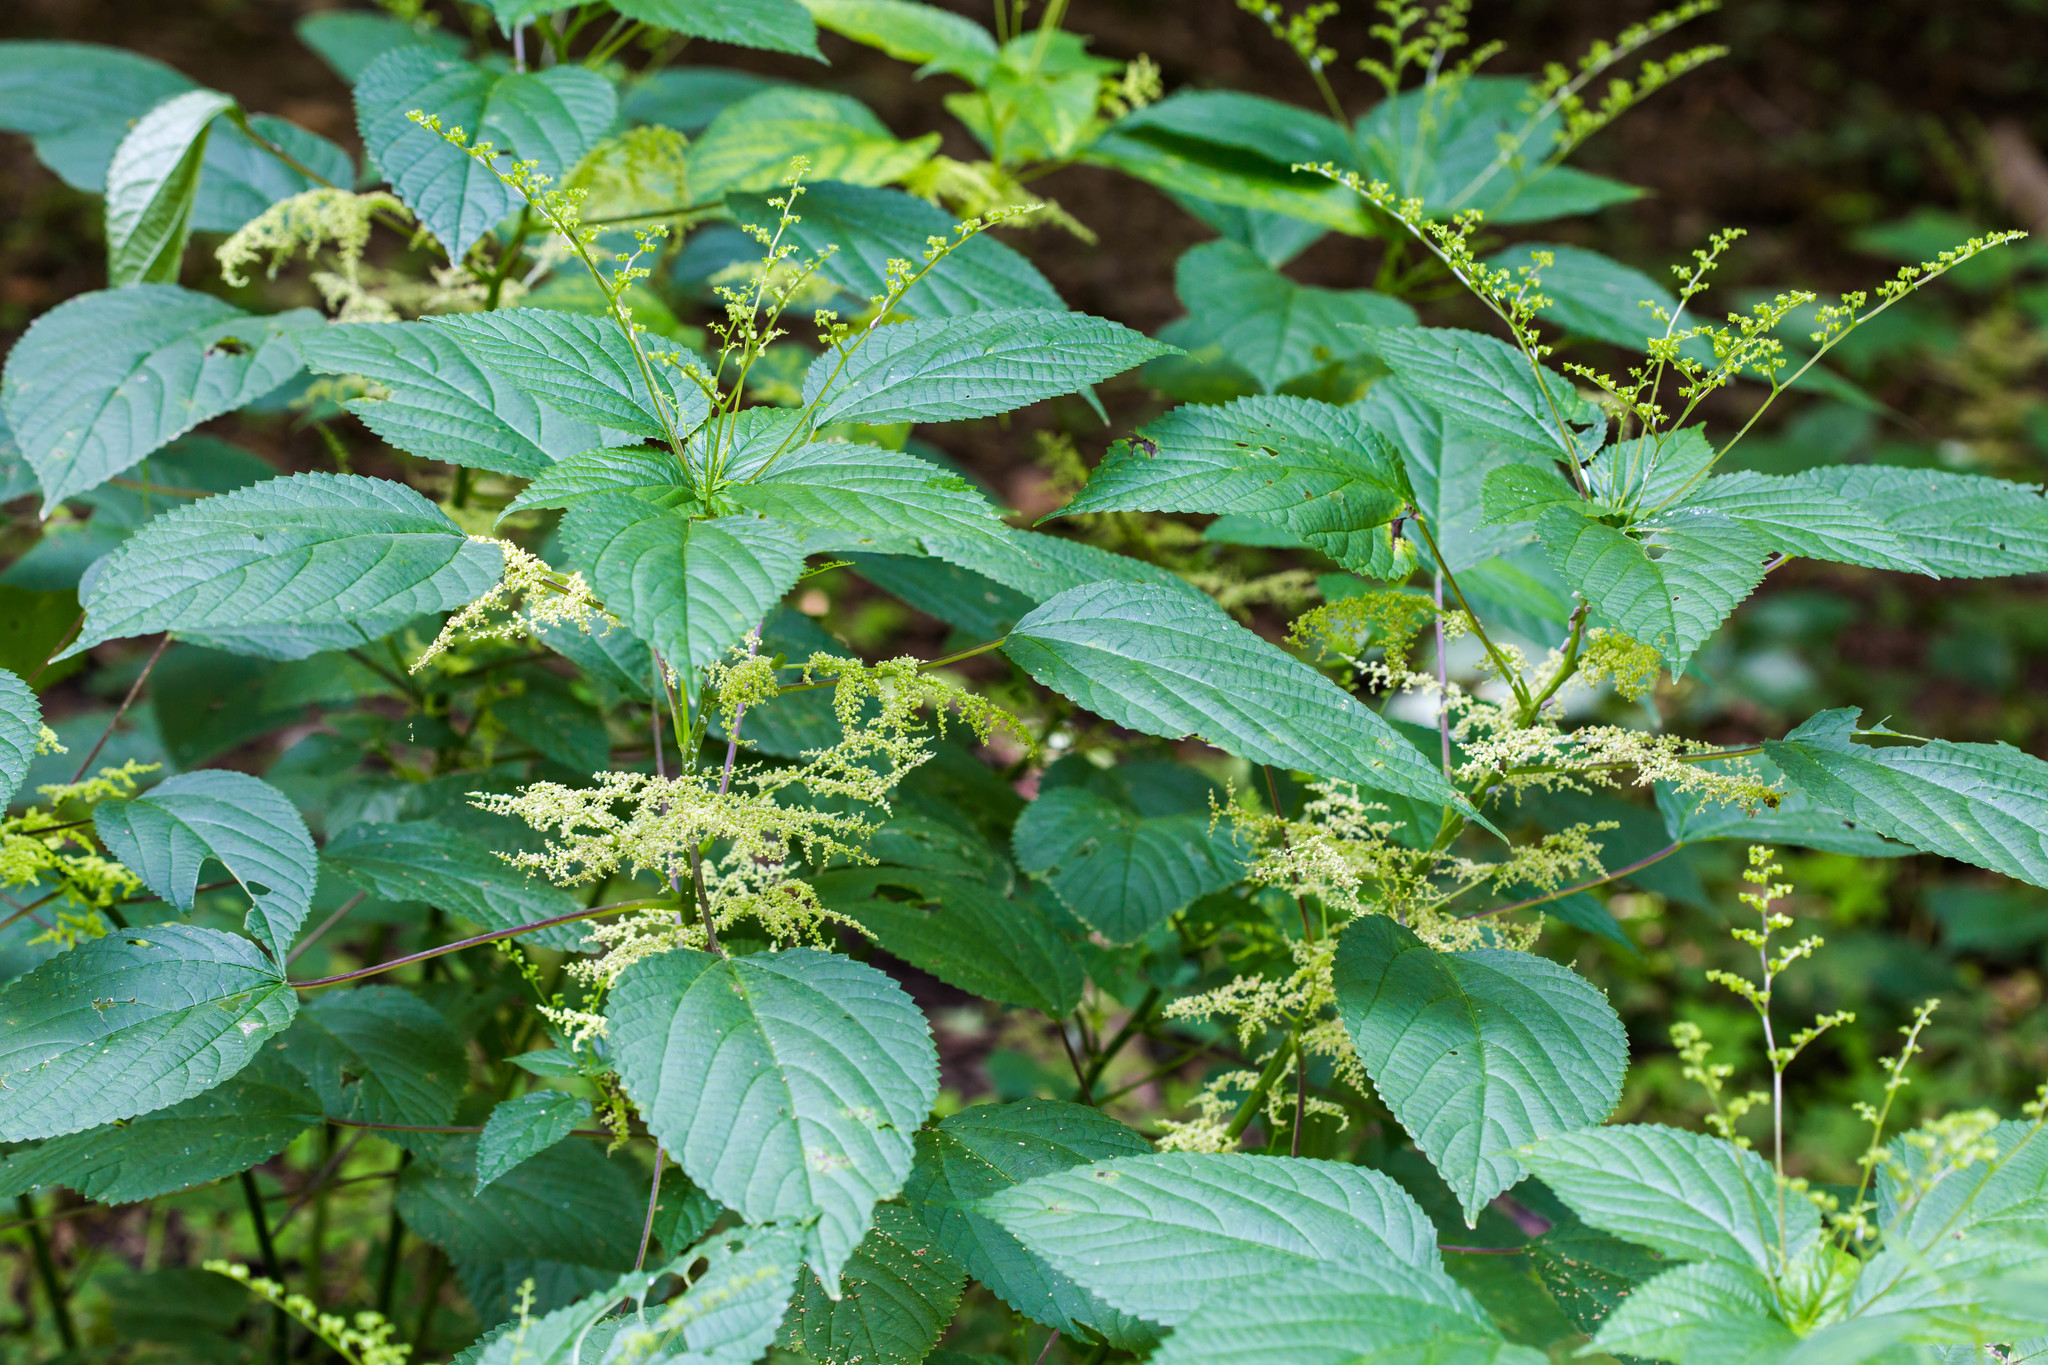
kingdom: Plantae
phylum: Tracheophyta
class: Magnoliopsida
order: Rosales
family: Urticaceae
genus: Laportea
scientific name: Laportea canadensis
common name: Canada nettle
